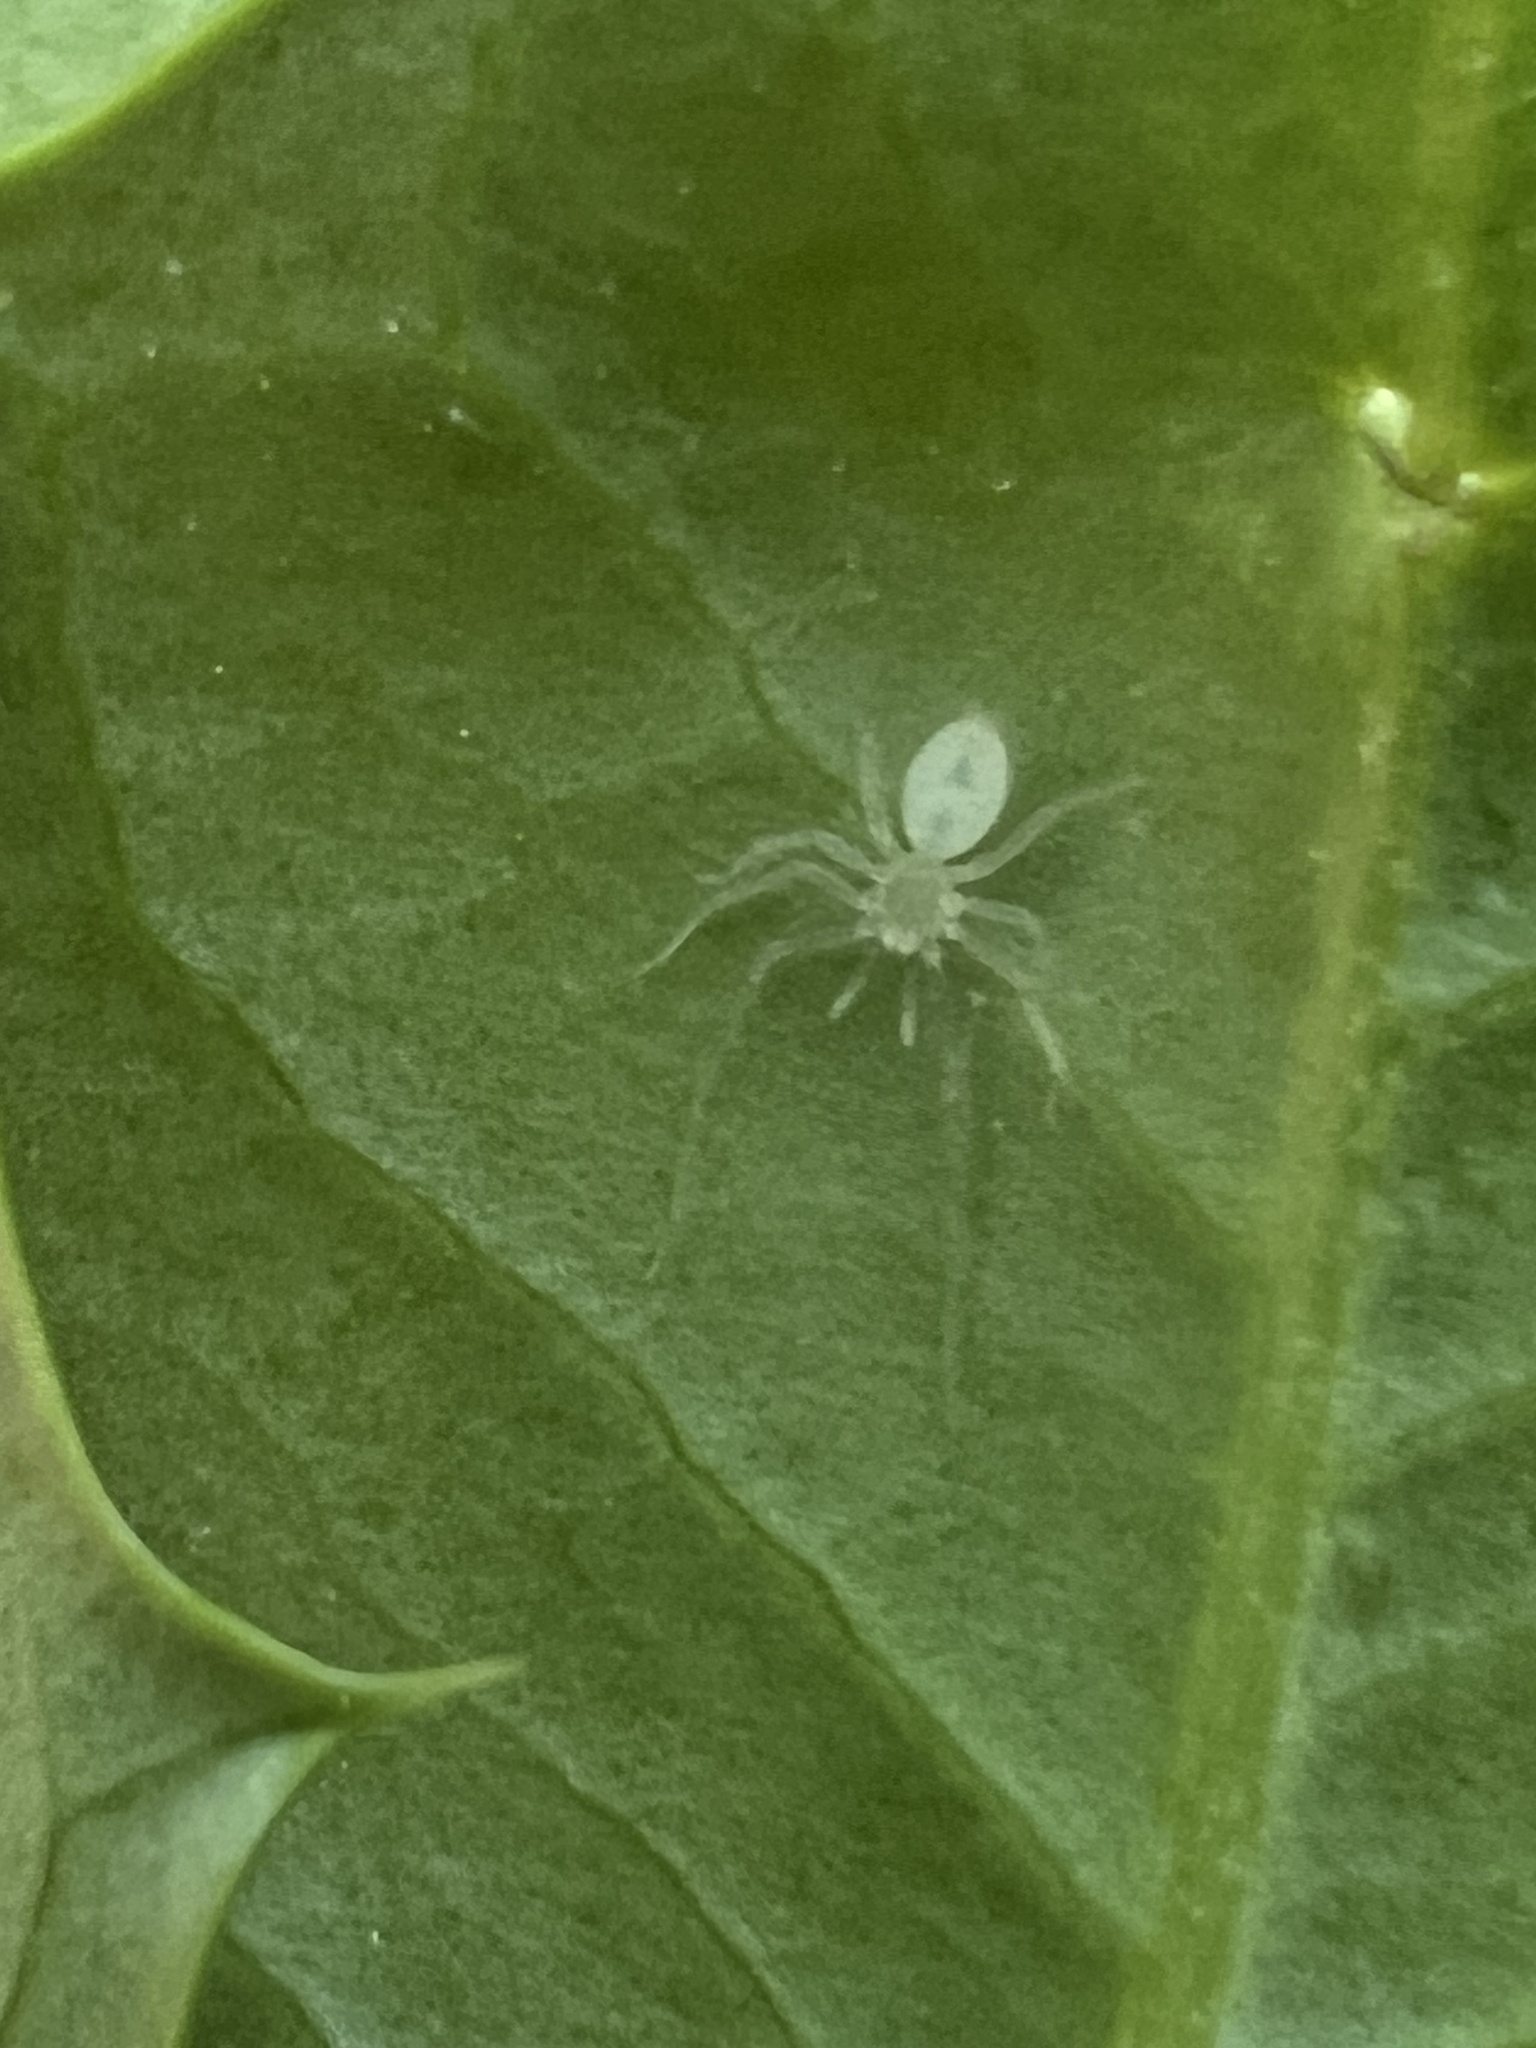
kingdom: Animalia
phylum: Arthropoda
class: Arachnida
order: Araneae
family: Anyphaenidae
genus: Wulfila
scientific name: Wulfila albens
